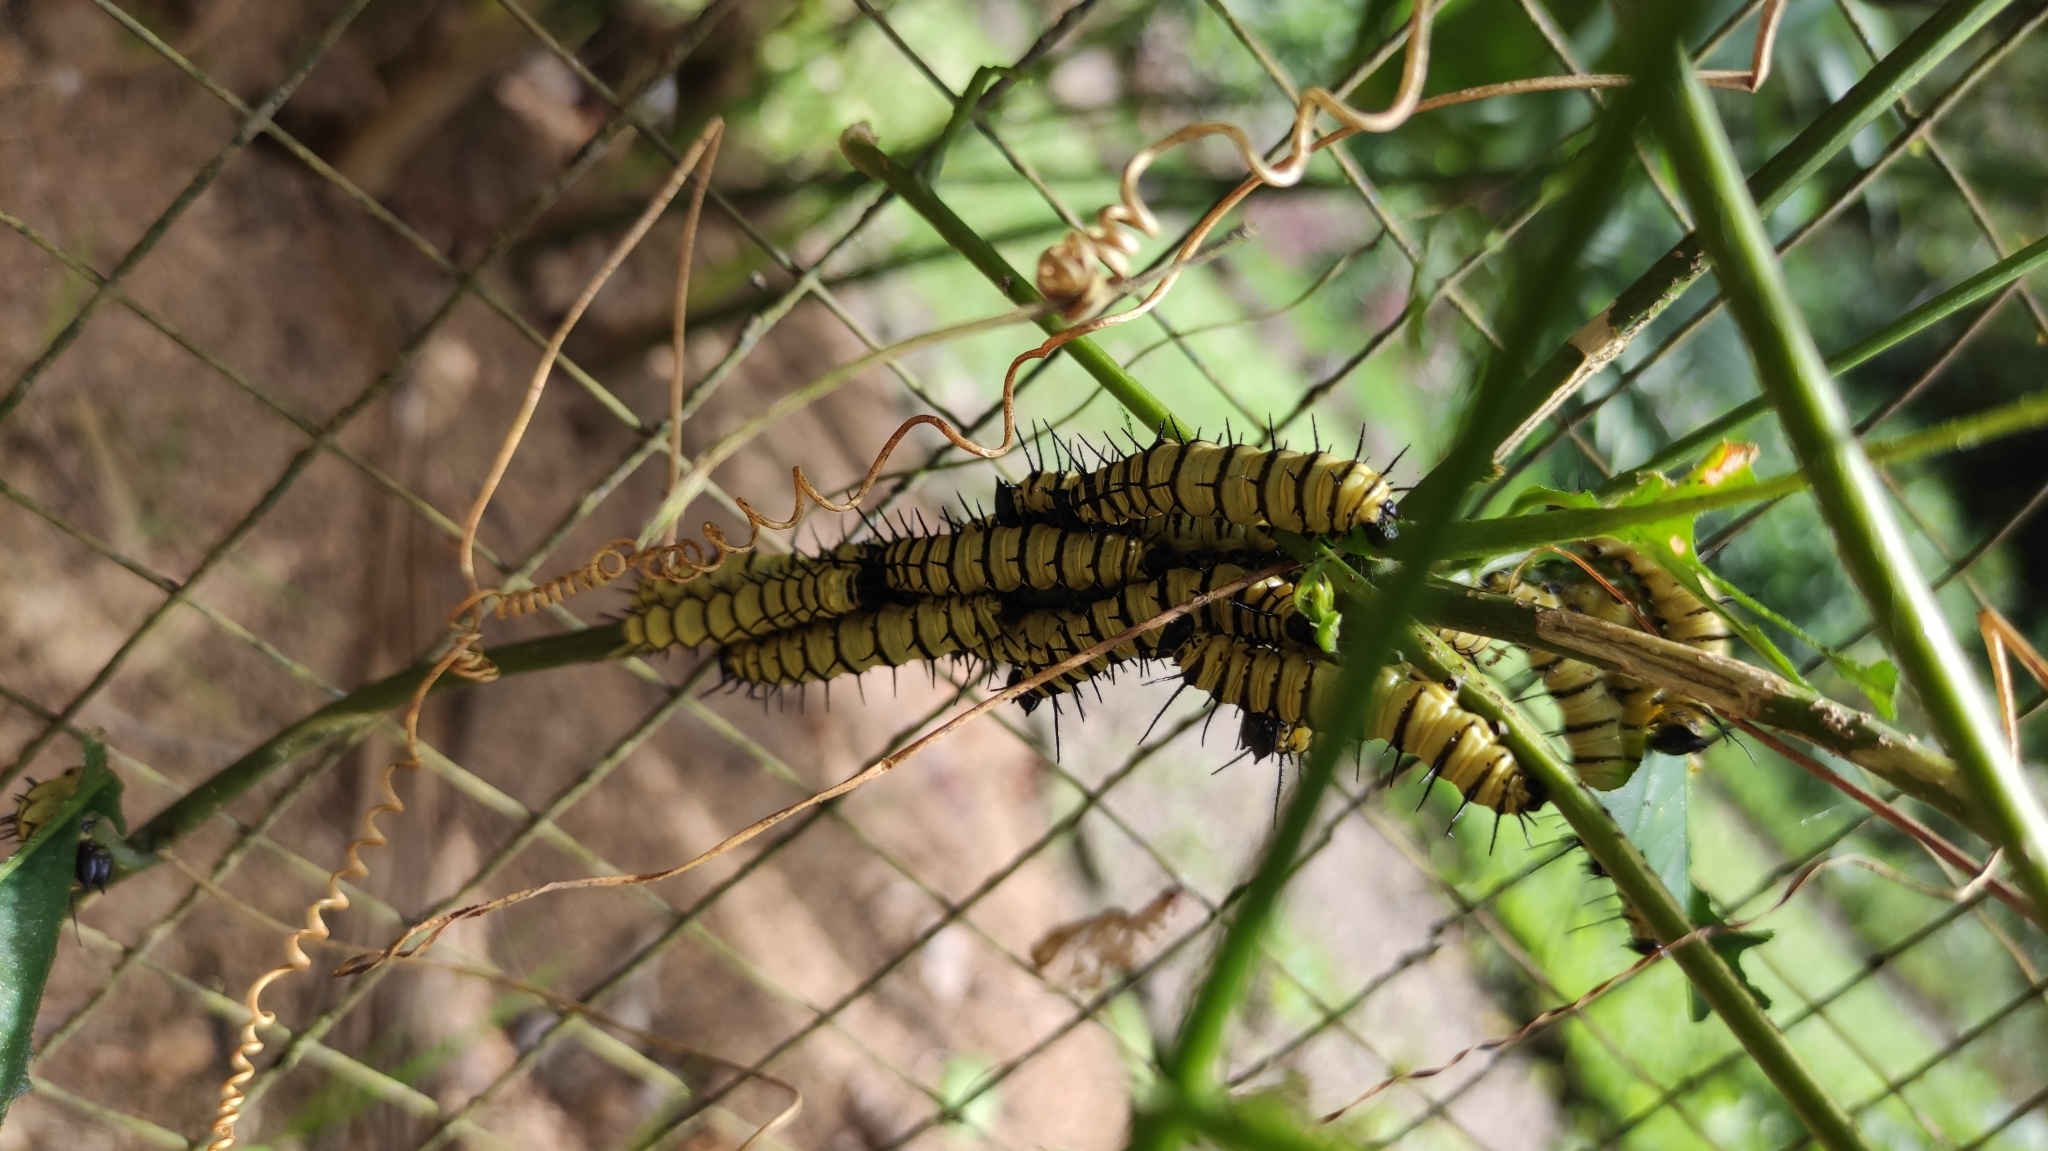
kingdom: Animalia
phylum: Arthropoda
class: Insecta
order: Lepidoptera
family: Nymphalidae
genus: Heliconius
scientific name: Heliconius doris
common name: Doris longwing
